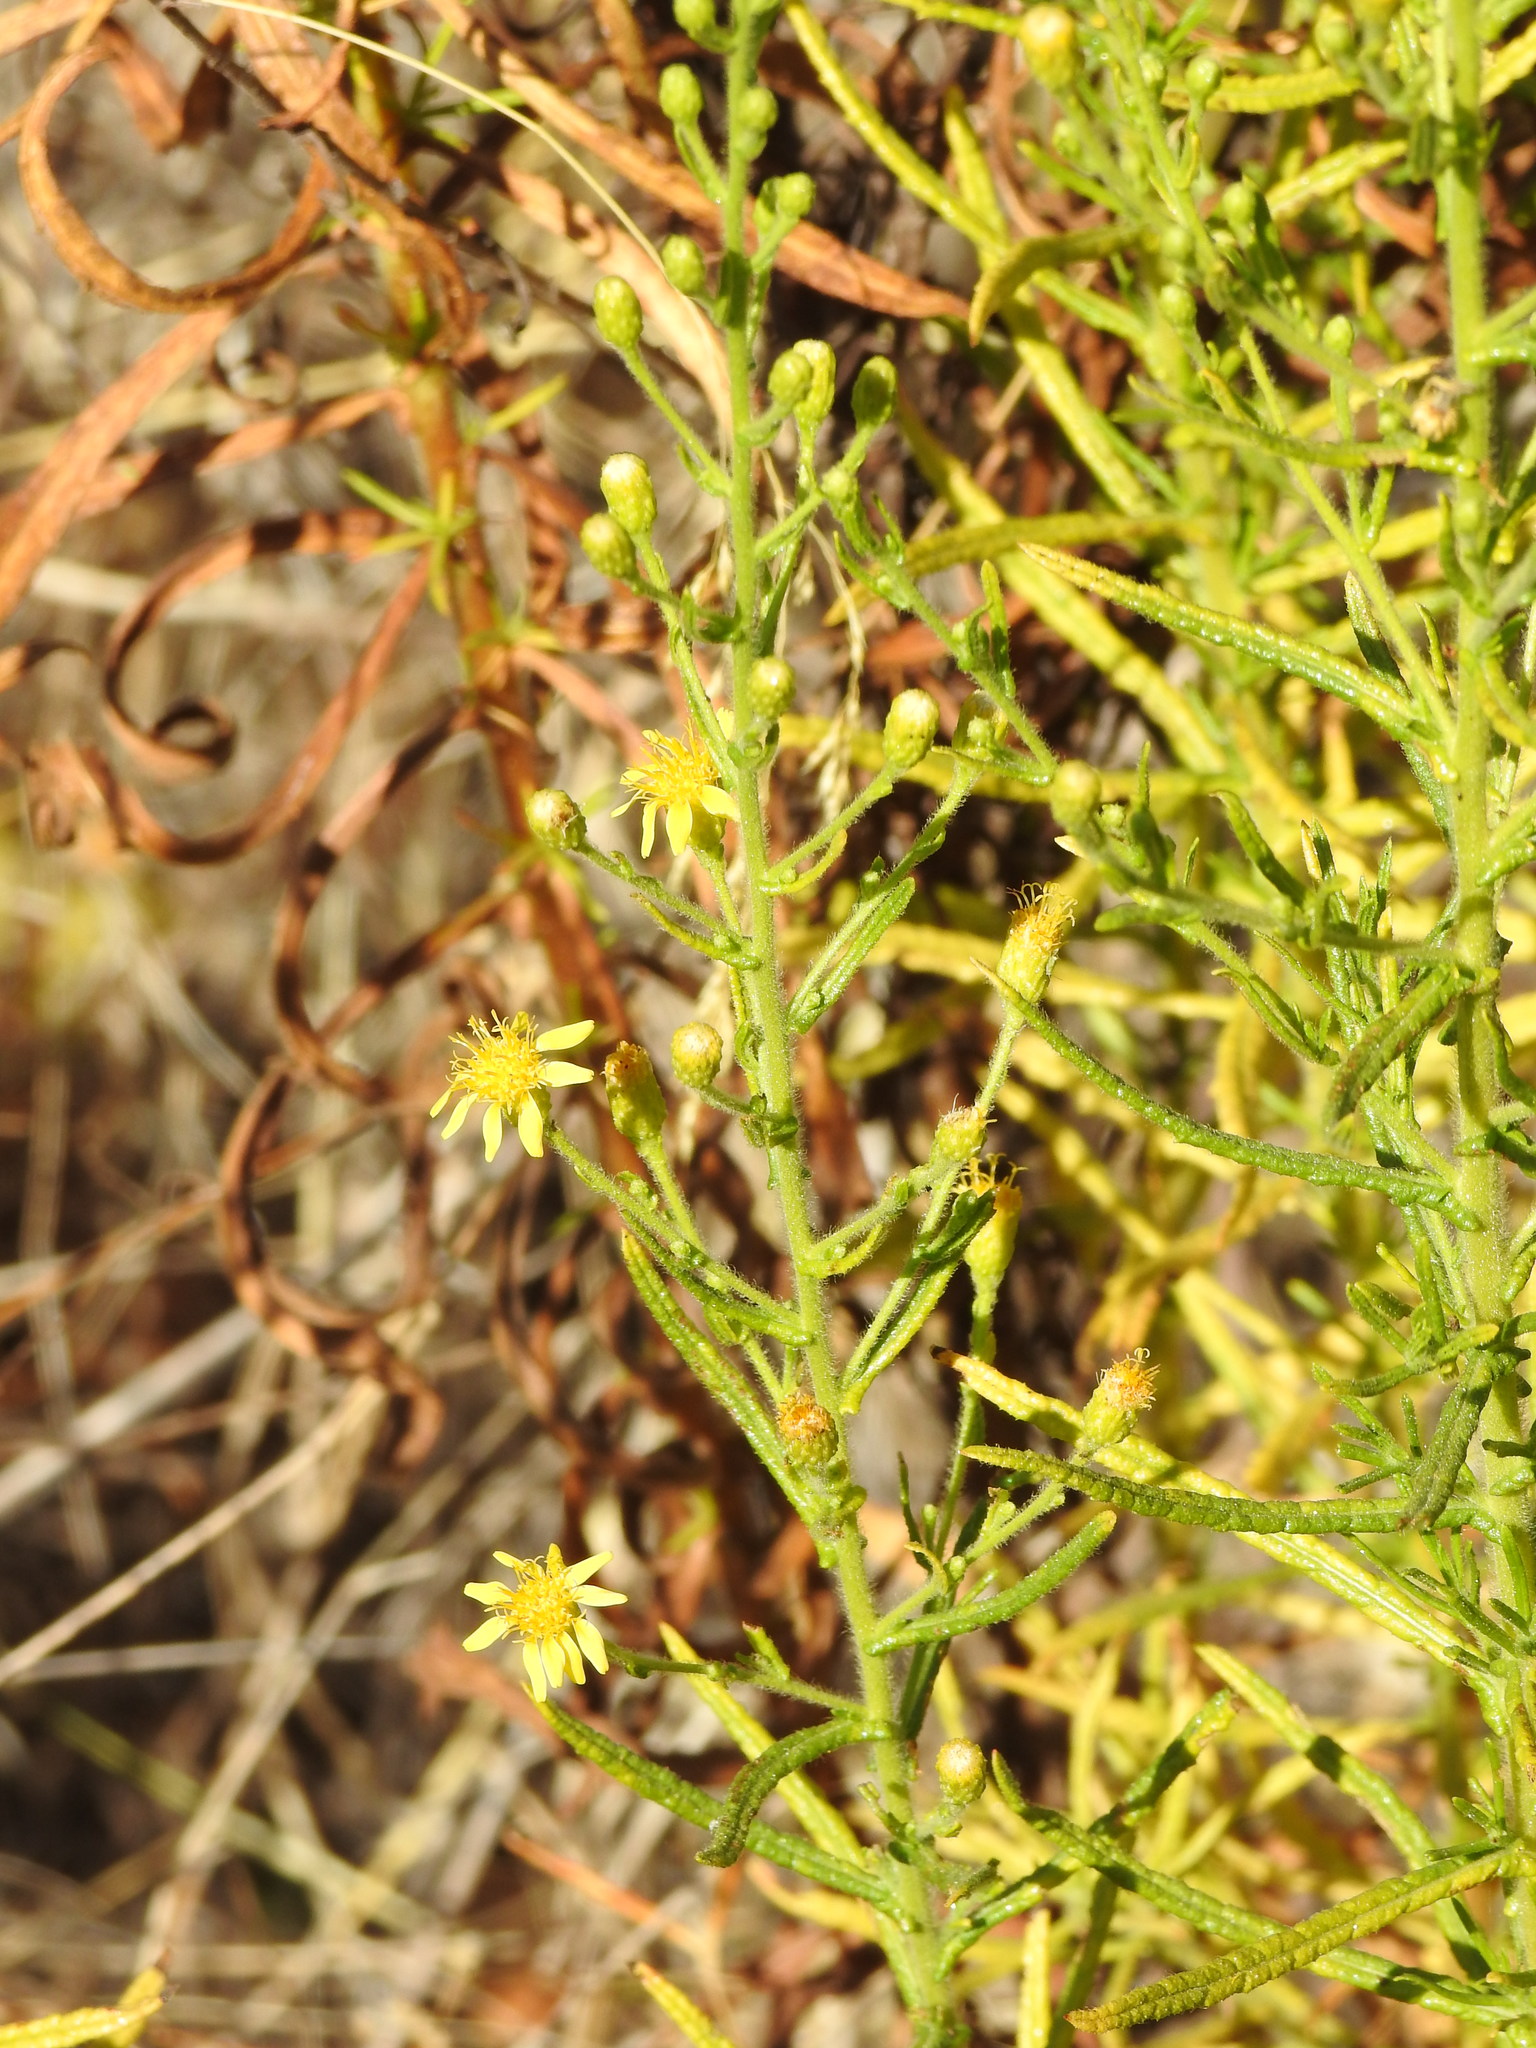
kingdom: Plantae
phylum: Tracheophyta
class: Magnoliopsida
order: Asterales
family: Asteraceae
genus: Dittrichia
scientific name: Dittrichia viscosa
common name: Woody fleabane
